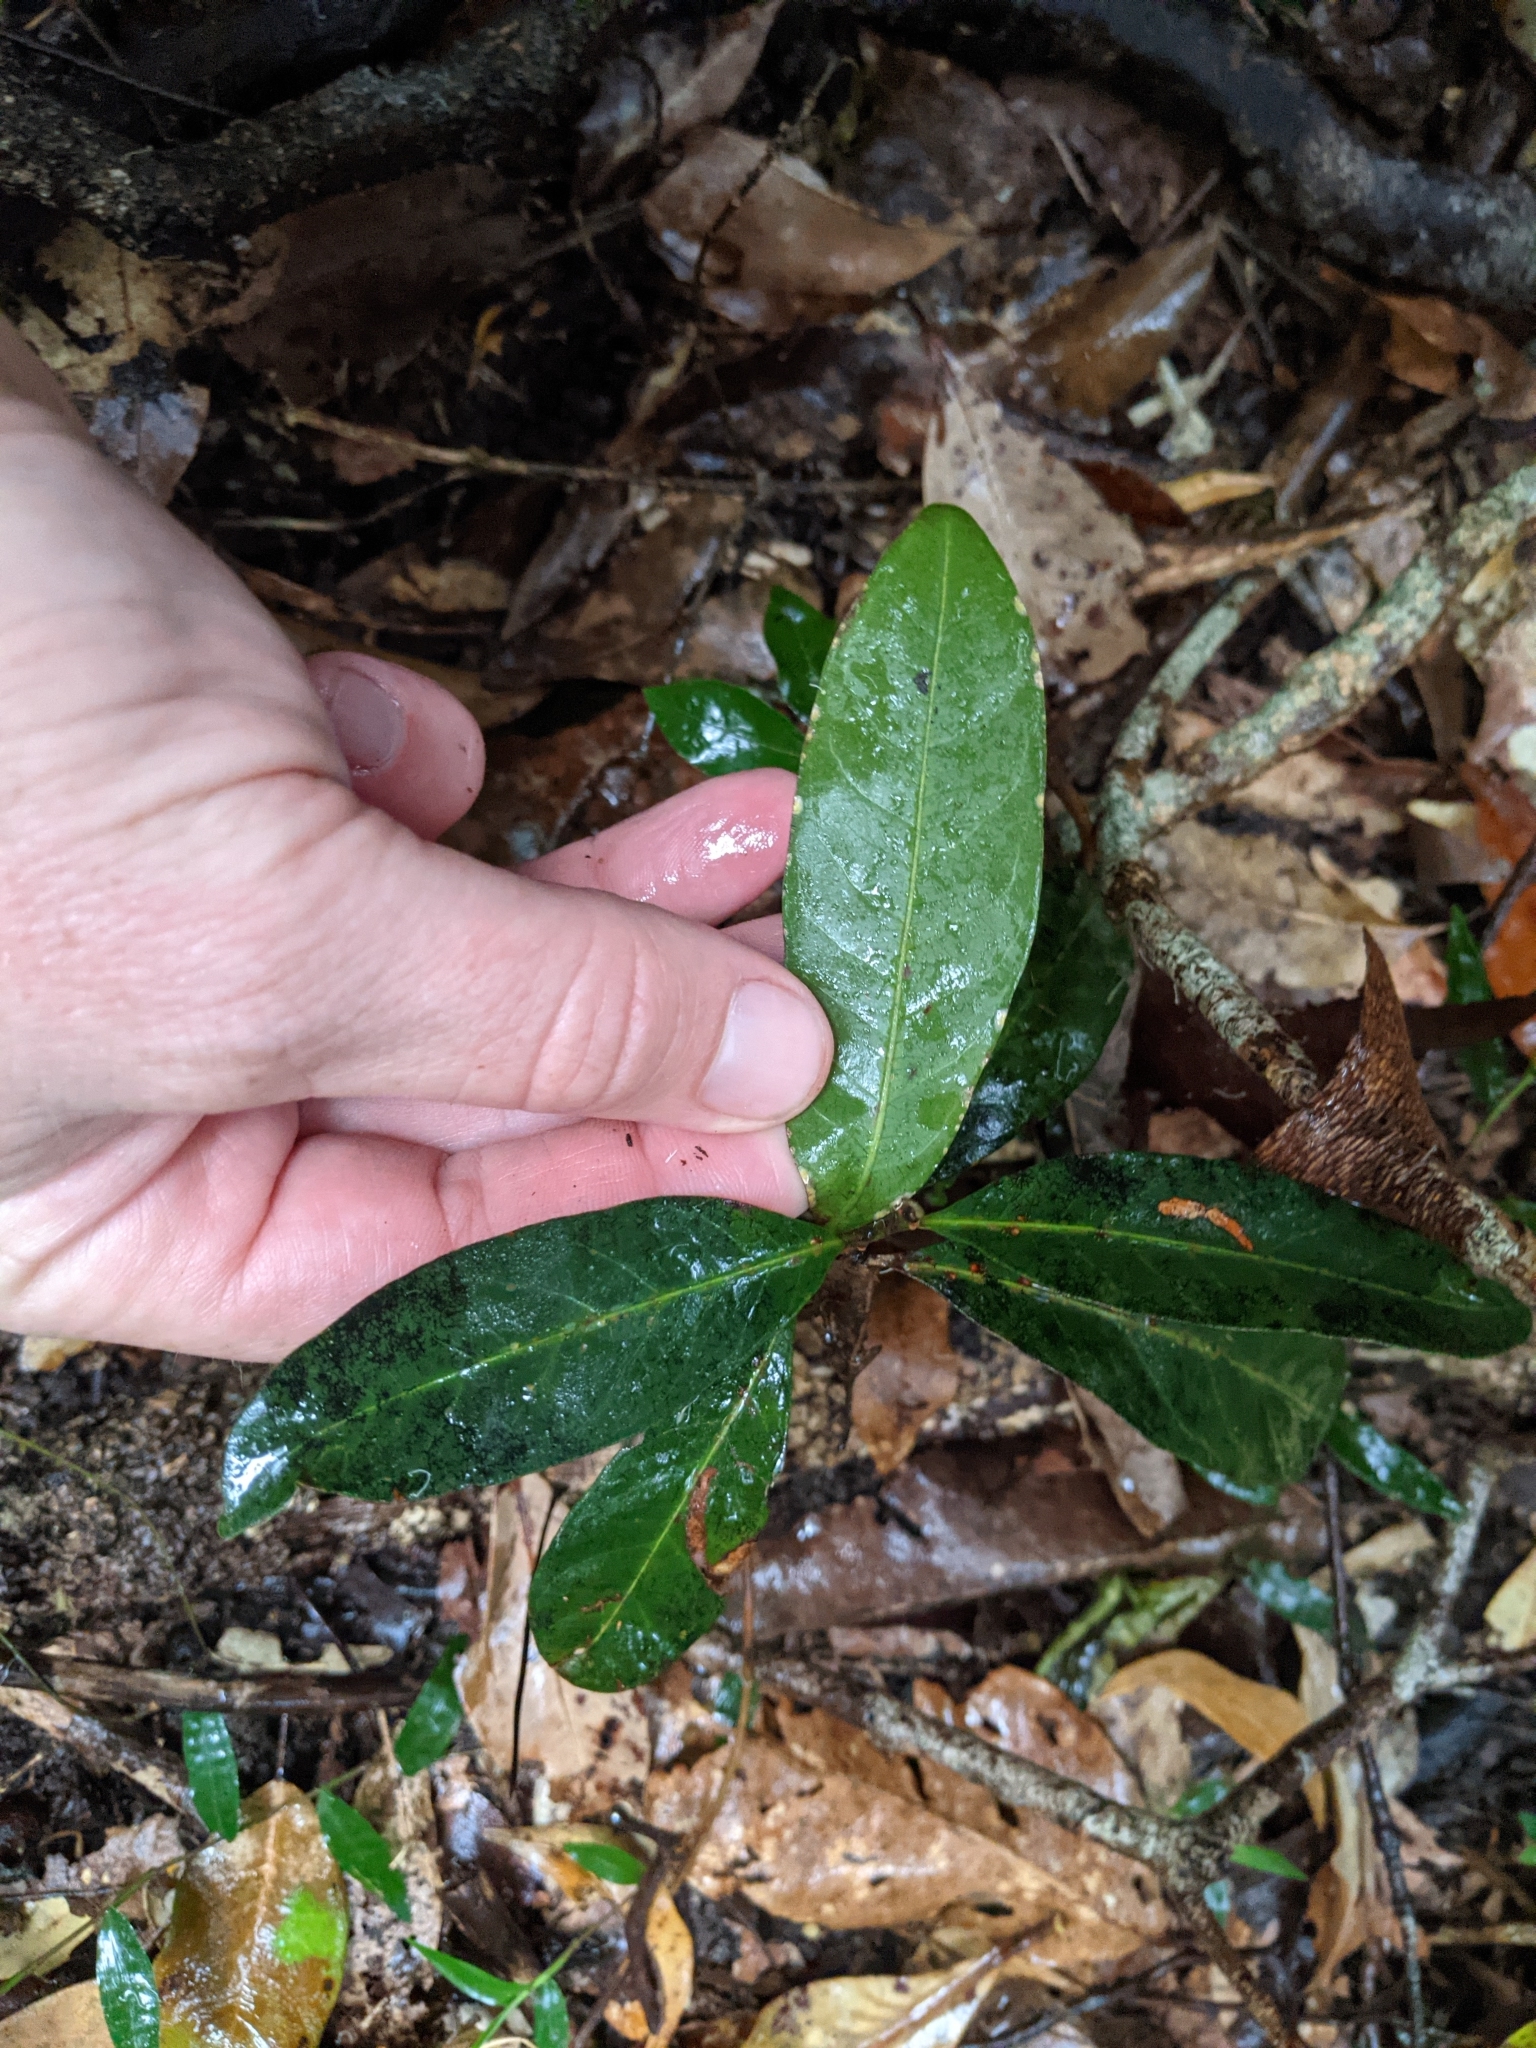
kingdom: Plantae
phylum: Tracheophyta
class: Magnoliopsida
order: Gentianales
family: Rubiaceae
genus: Psychotria
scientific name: Psychotria loniceroides
